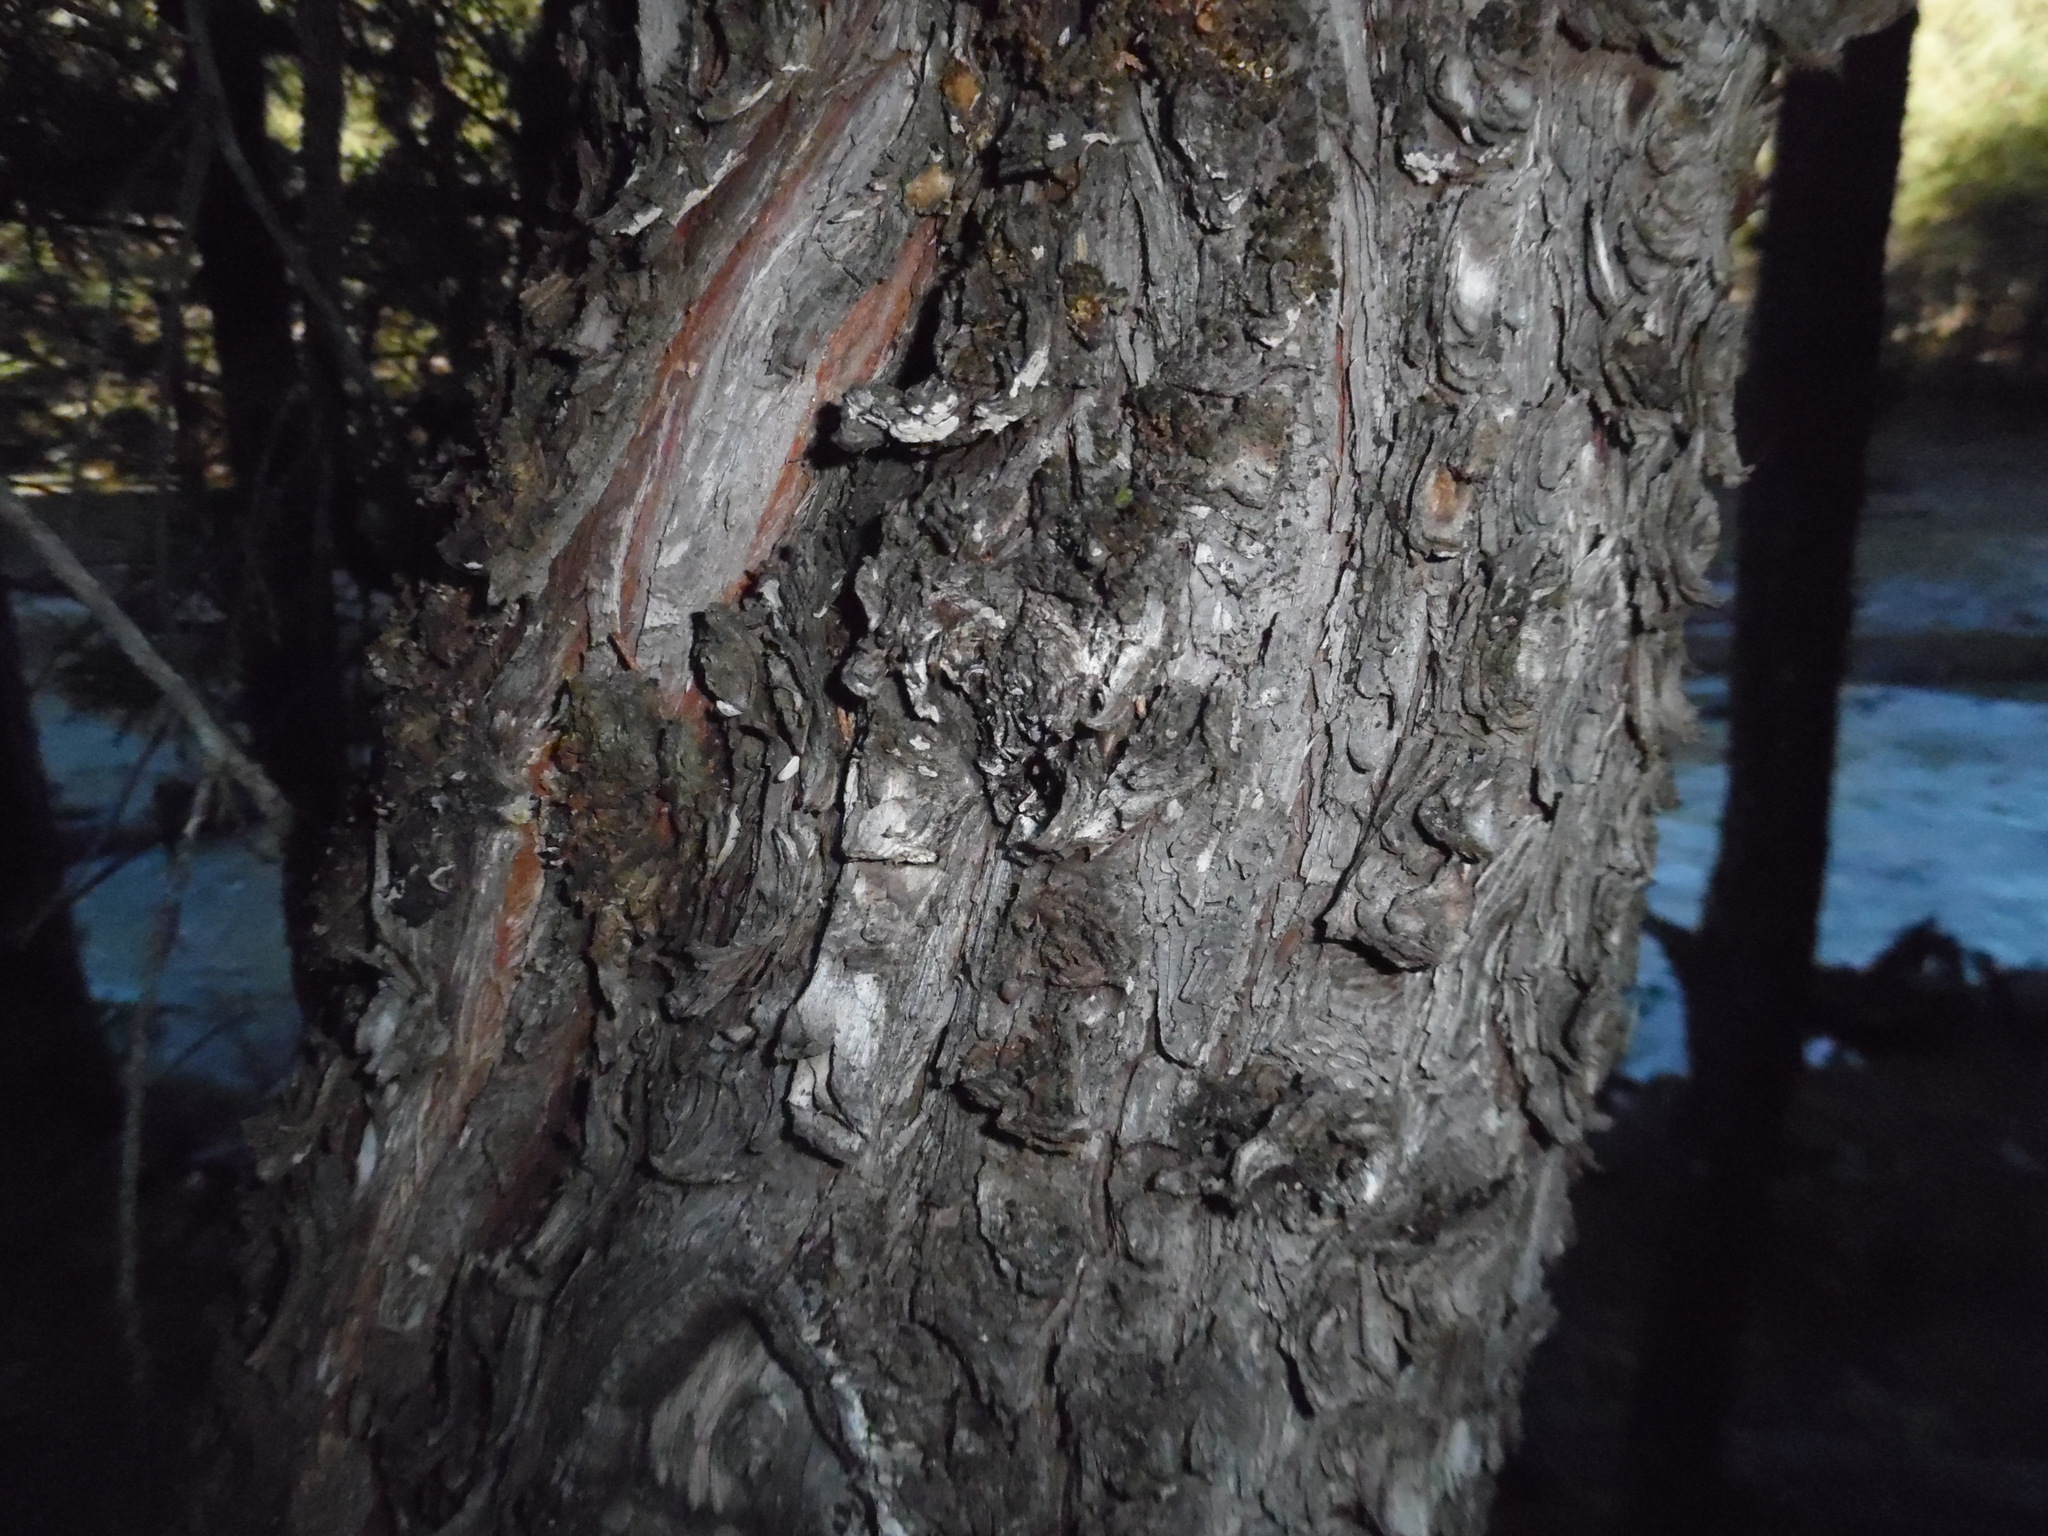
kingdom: Plantae
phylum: Tracheophyta
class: Pinopsida
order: Pinales
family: Cupressaceae
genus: Juniperus
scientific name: Juniperus deppeana
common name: Alligator juniper
